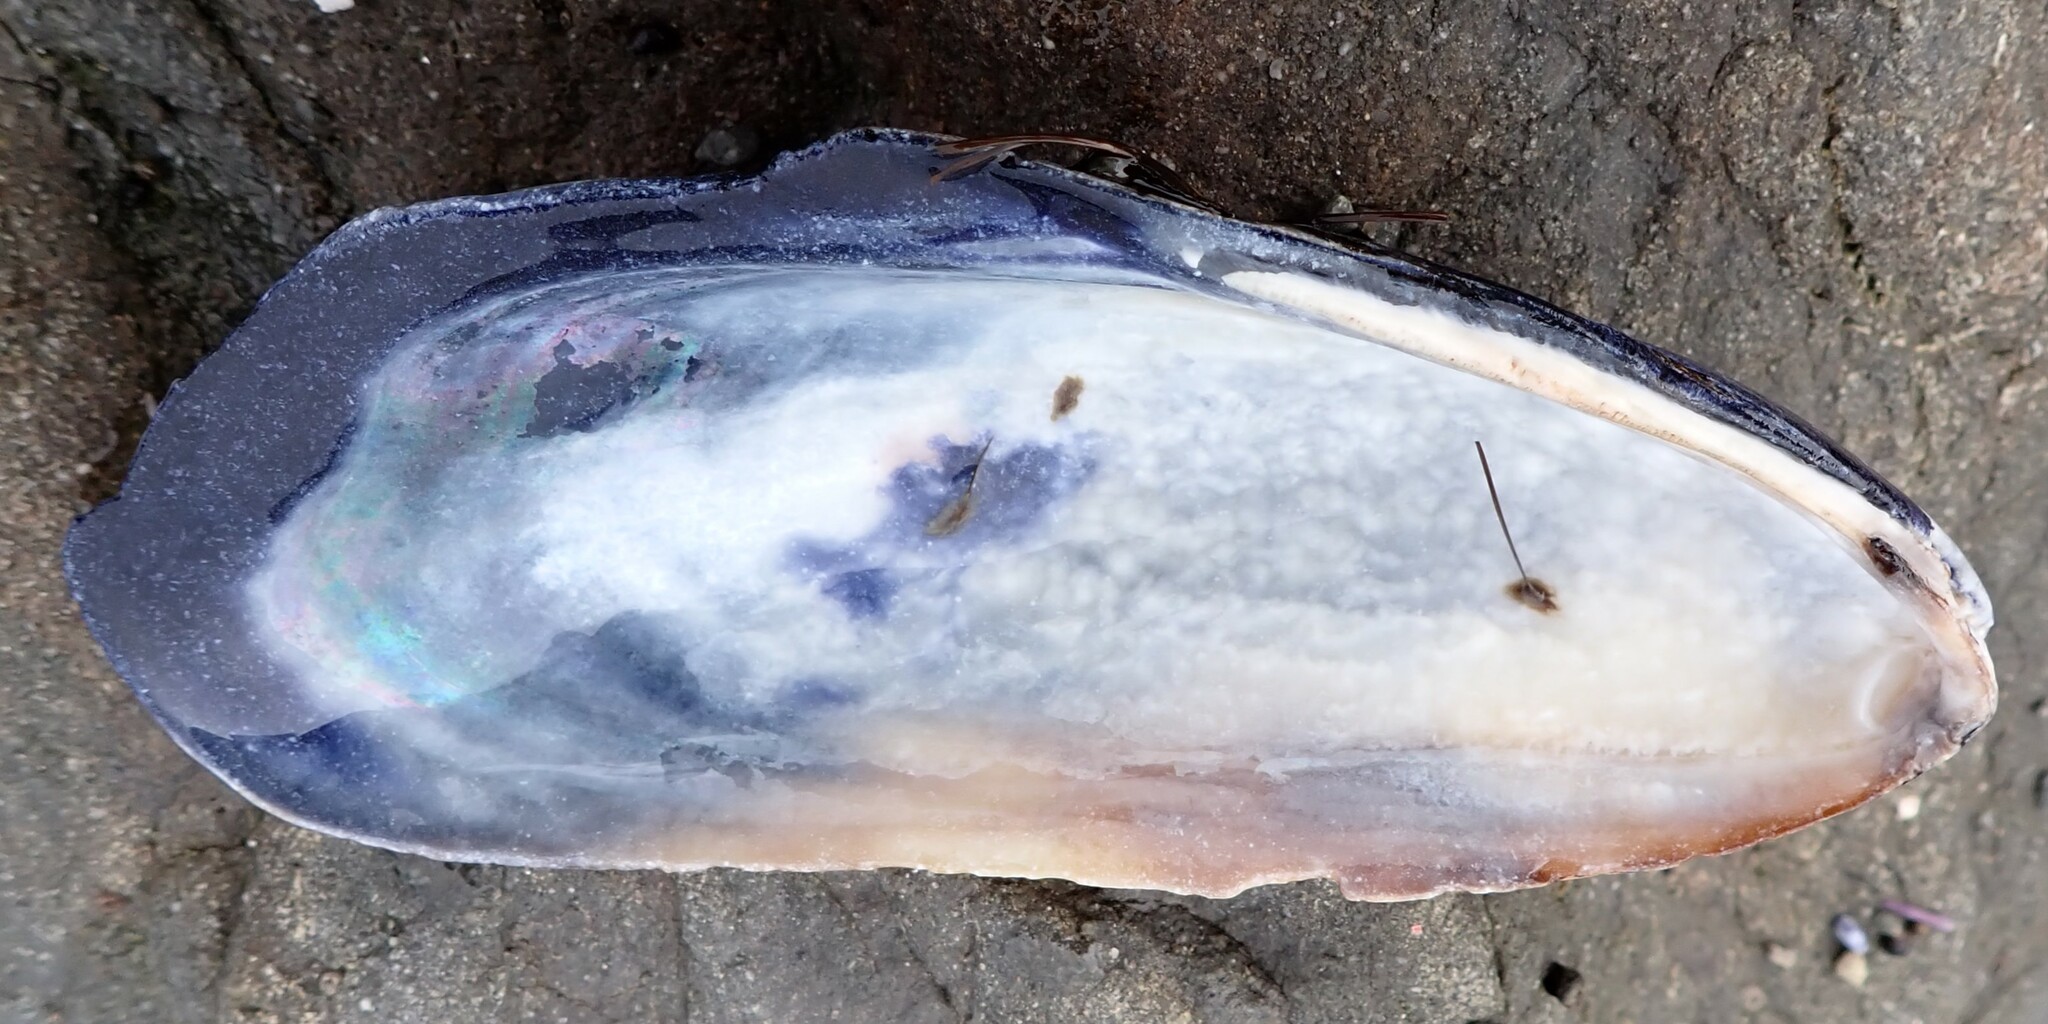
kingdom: Animalia
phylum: Mollusca
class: Bivalvia
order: Mytilida
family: Mytilidae
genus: Mytilus
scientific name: Mytilus californianus
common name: California mussel
